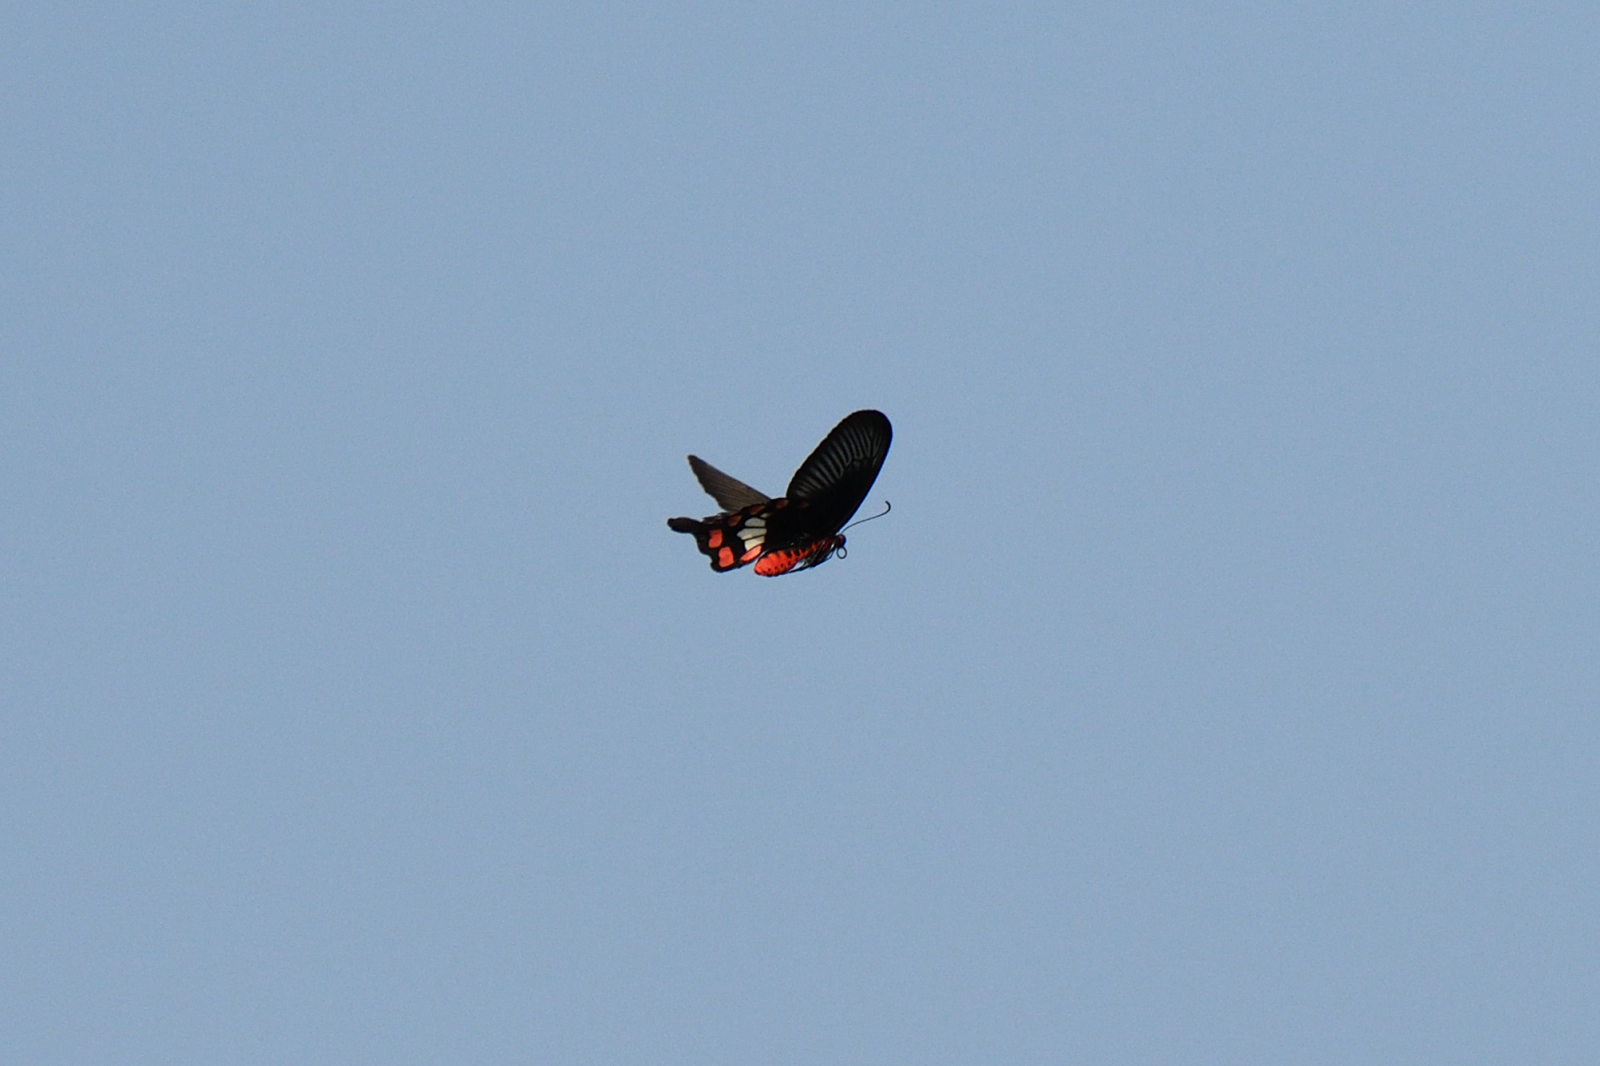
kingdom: Animalia
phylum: Arthropoda
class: Insecta
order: Lepidoptera
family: Papilionidae
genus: Pachliopta
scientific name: Pachliopta aristolochiae
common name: Common rose
